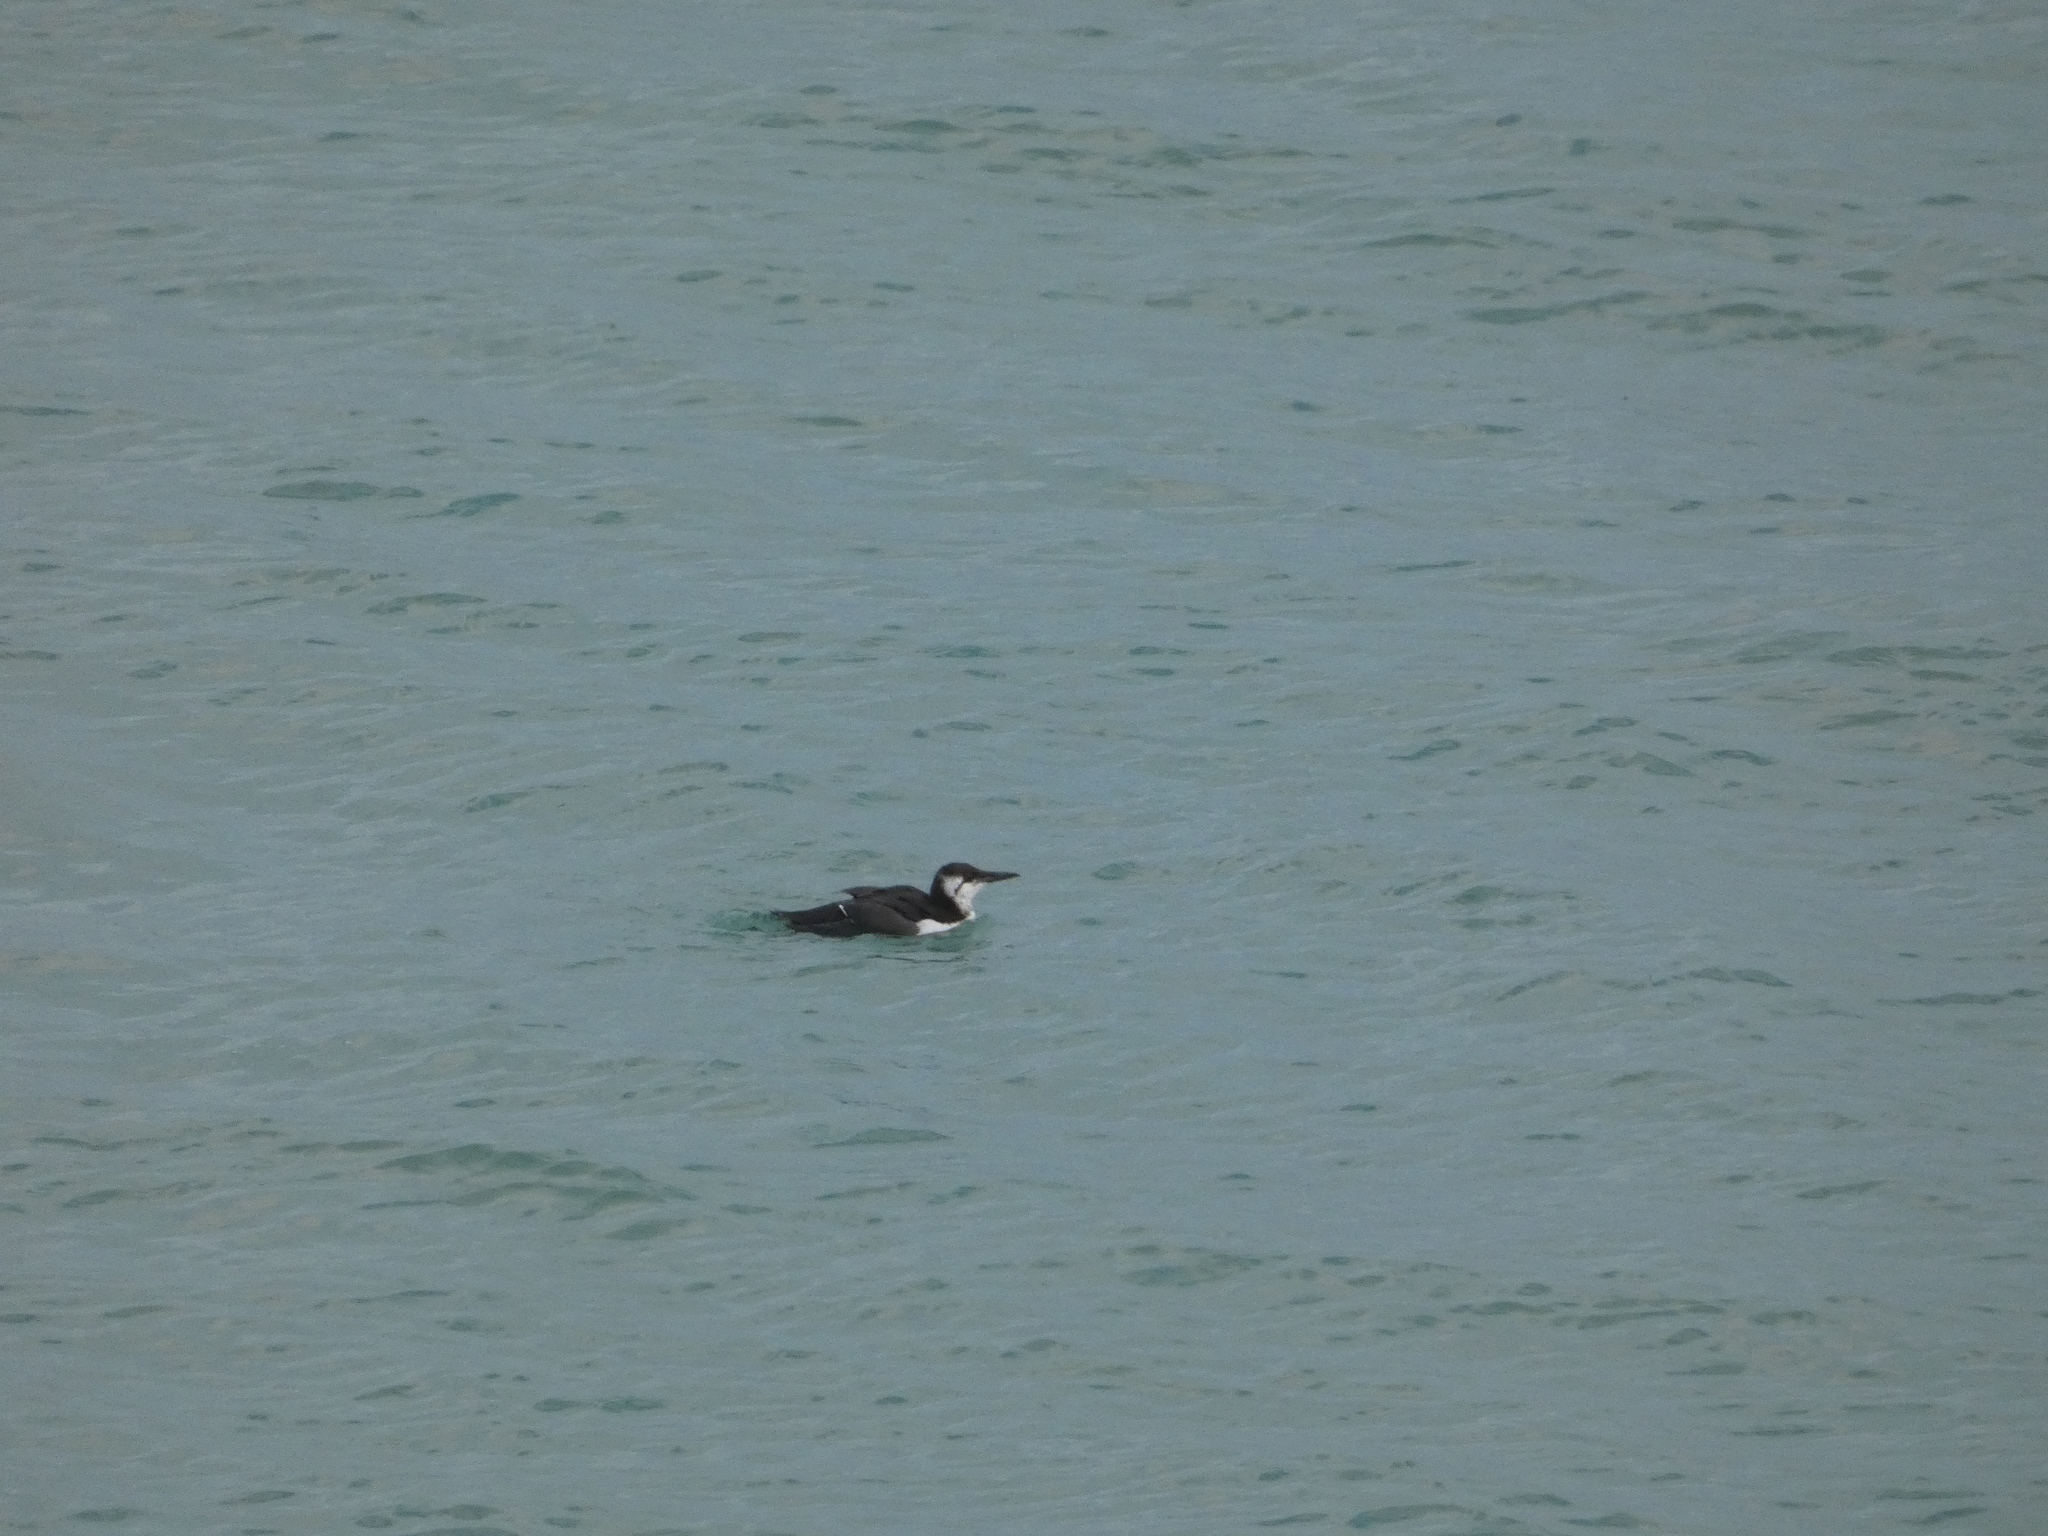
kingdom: Animalia
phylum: Chordata
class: Aves
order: Charadriiformes
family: Alcidae
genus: Uria
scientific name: Uria aalge
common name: Common murre
